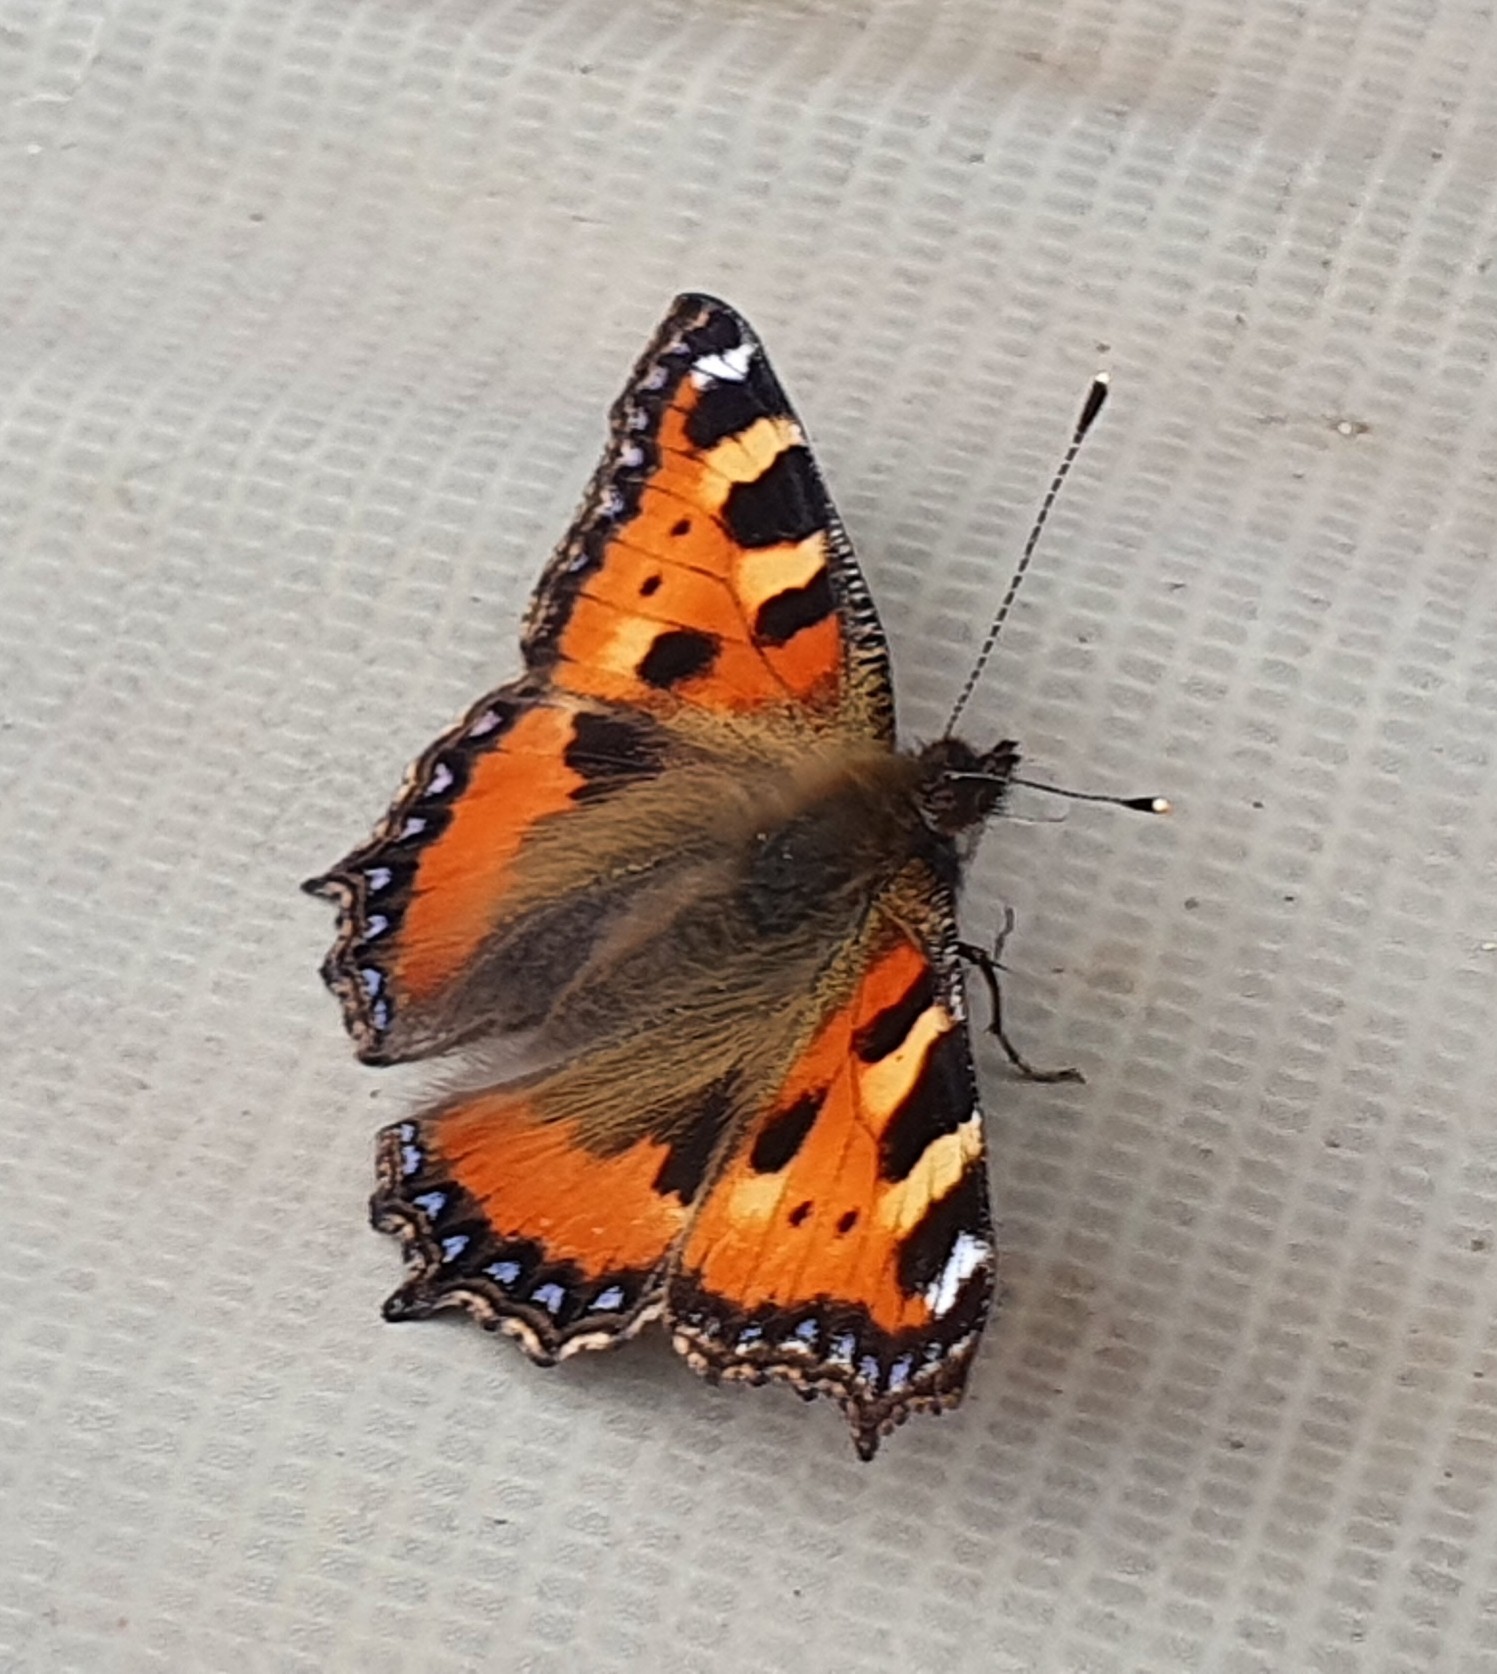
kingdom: Animalia
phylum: Arthropoda
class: Insecta
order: Lepidoptera
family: Nymphalidae
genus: Aglais
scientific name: Aglais urticae
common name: Small tortoiseshell
